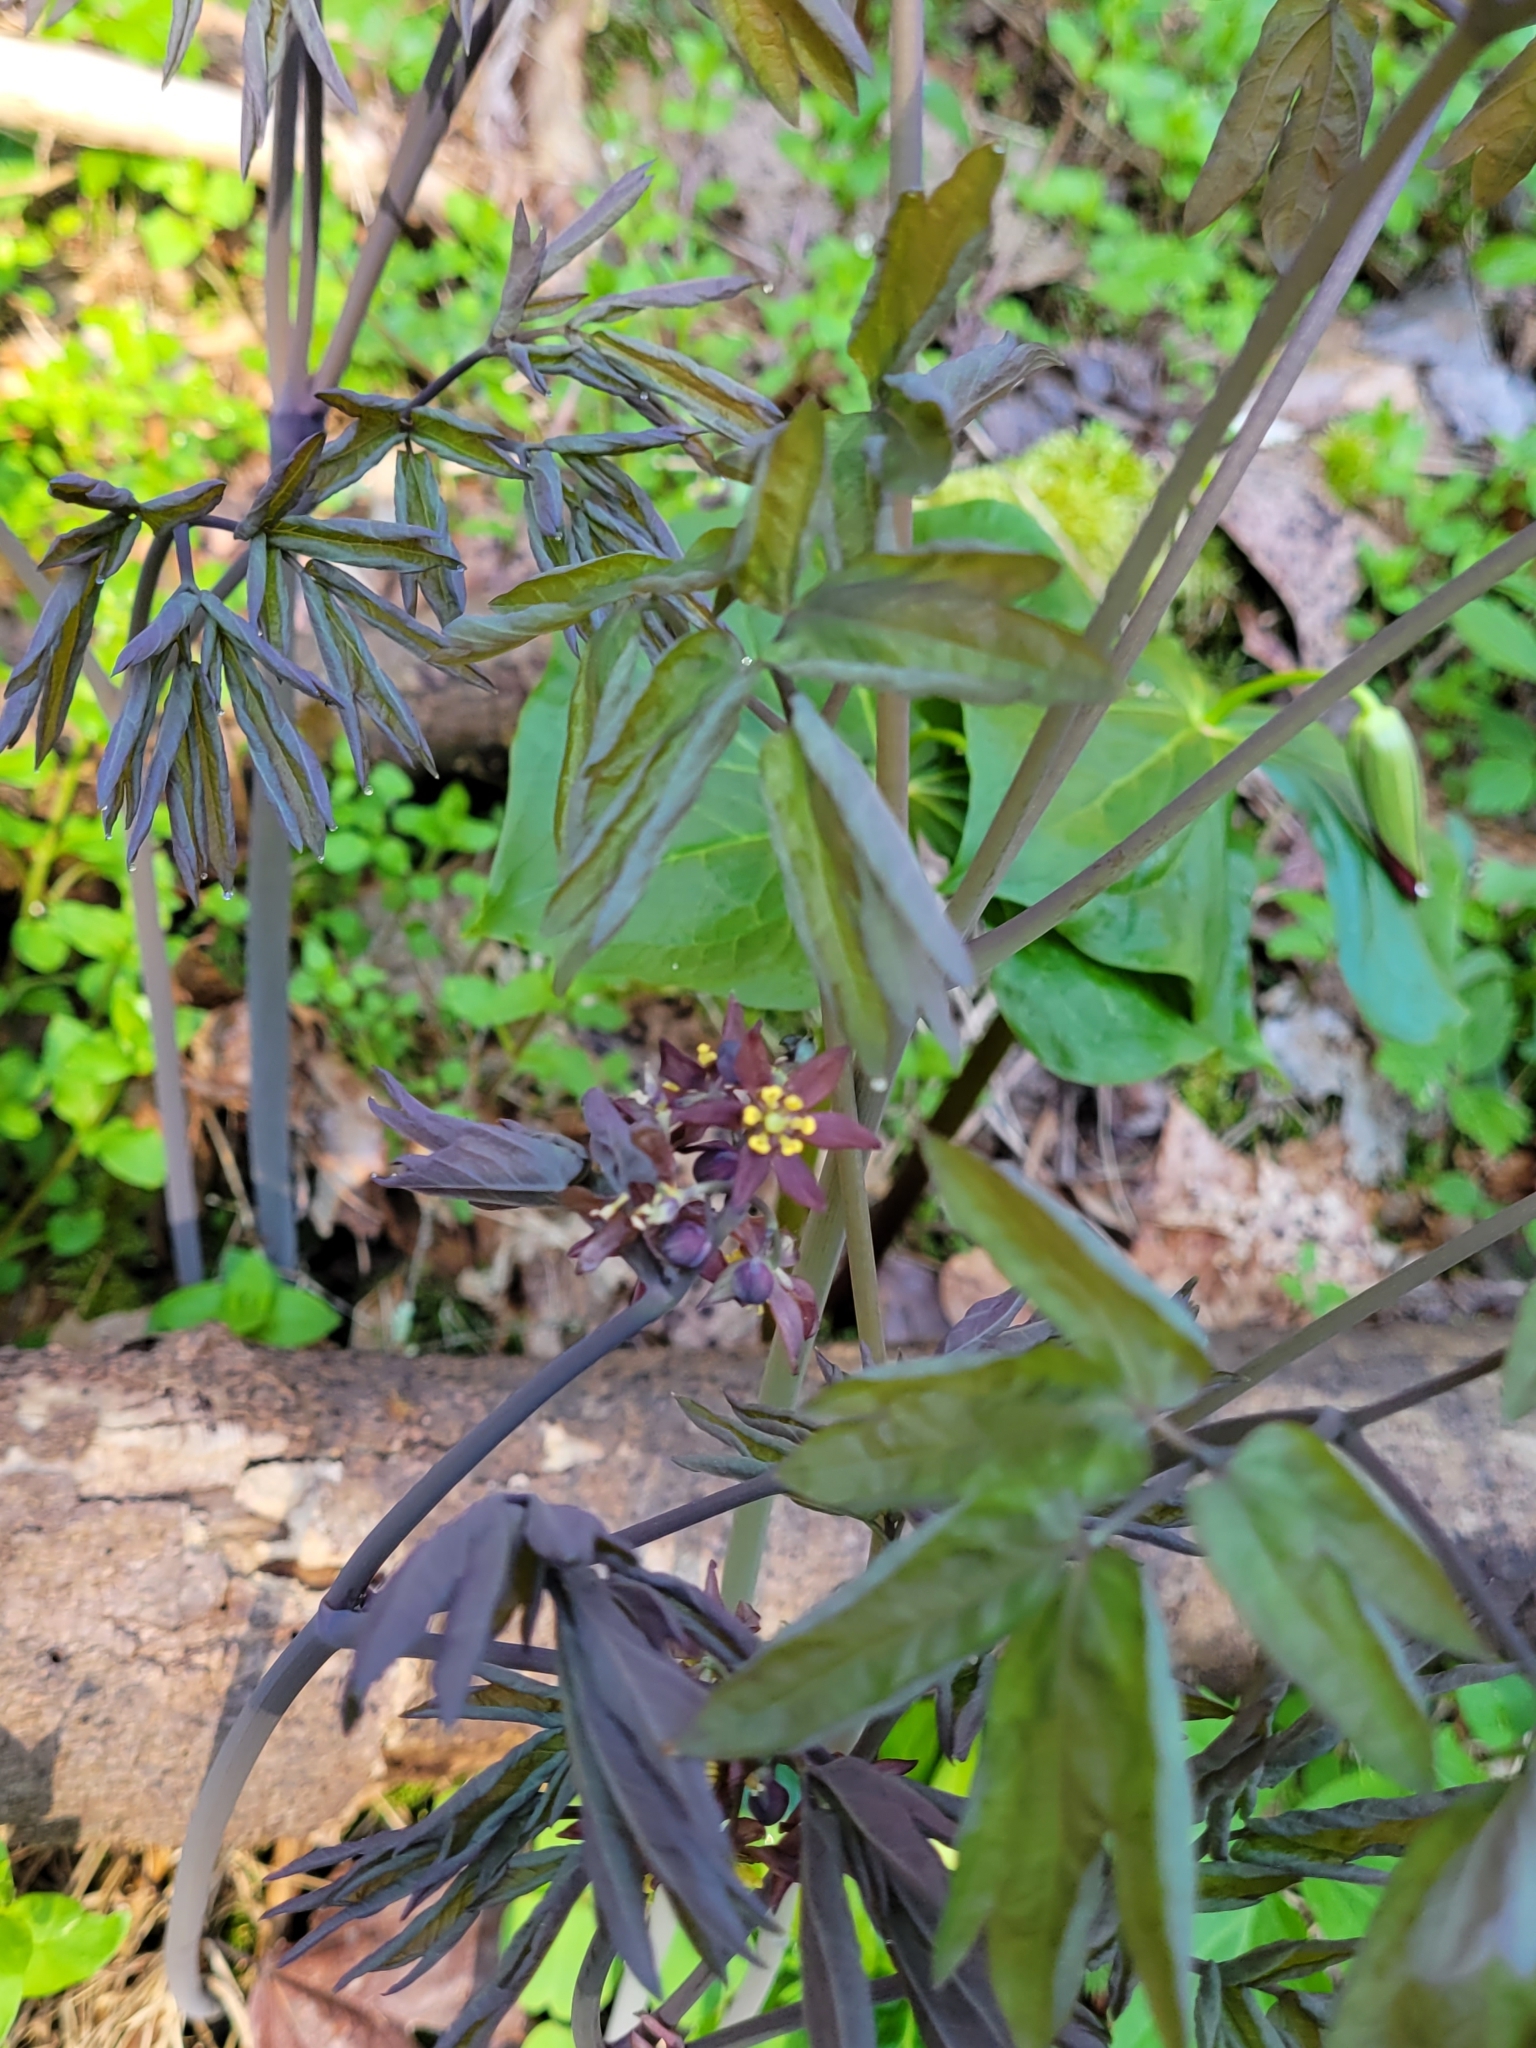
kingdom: Plantae
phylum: Tracheophyta
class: Magnoliopsida
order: Ranunculales
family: Berberidaceae
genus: Caulophyllum
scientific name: Caulophyllum giganteum
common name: Blue cohosh
